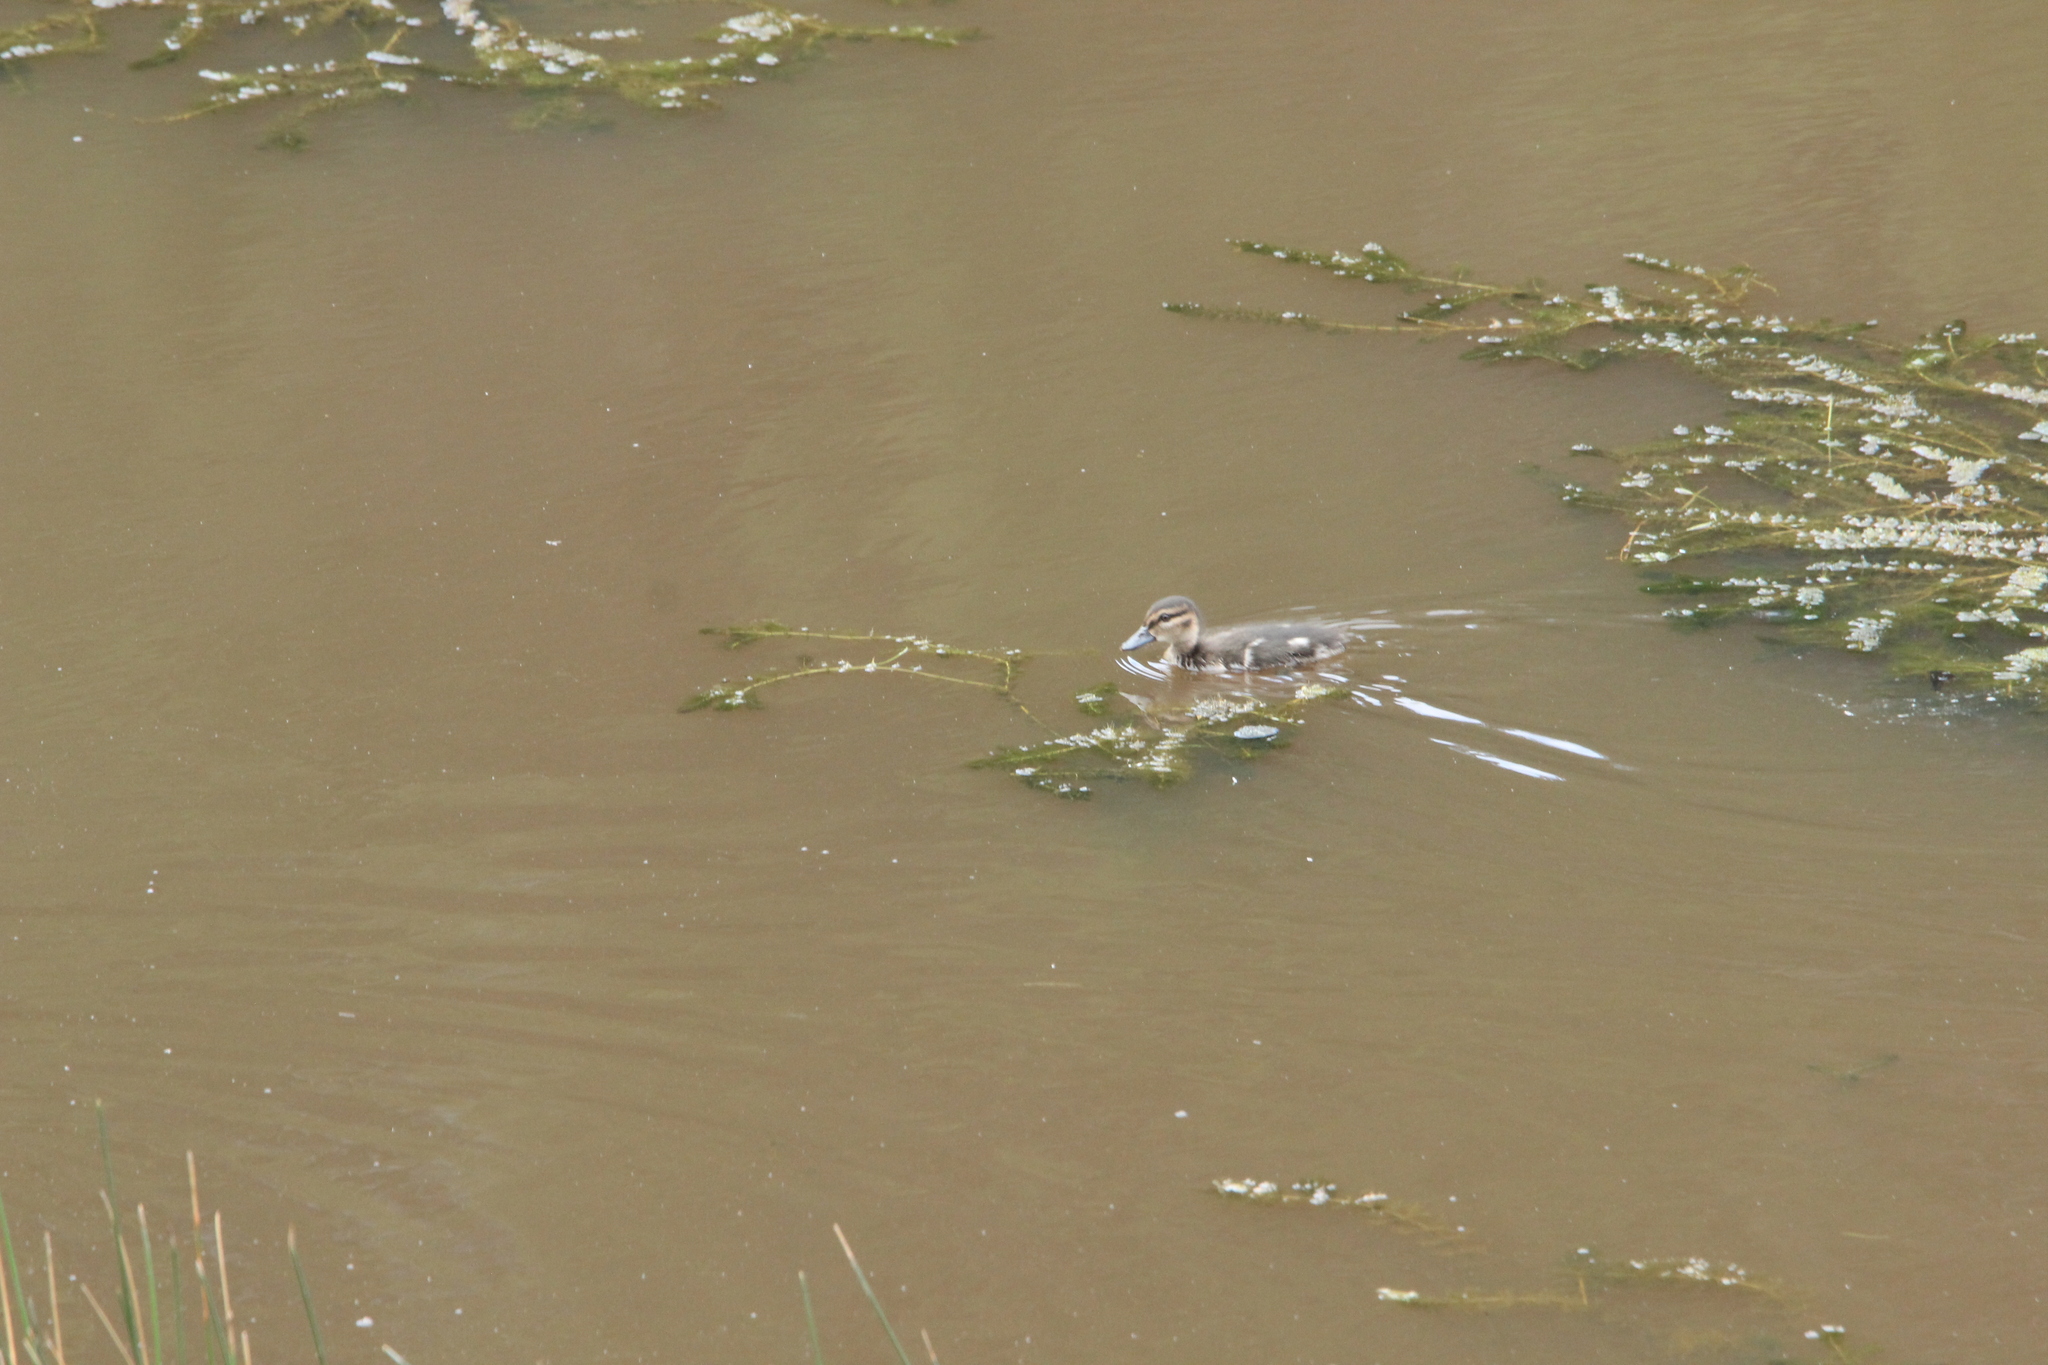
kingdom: Animalia
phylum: Chordata
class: Aves
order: Anseriformes
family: Anatidae
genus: Anas
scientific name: Anas castanea
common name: Chestnut teal
